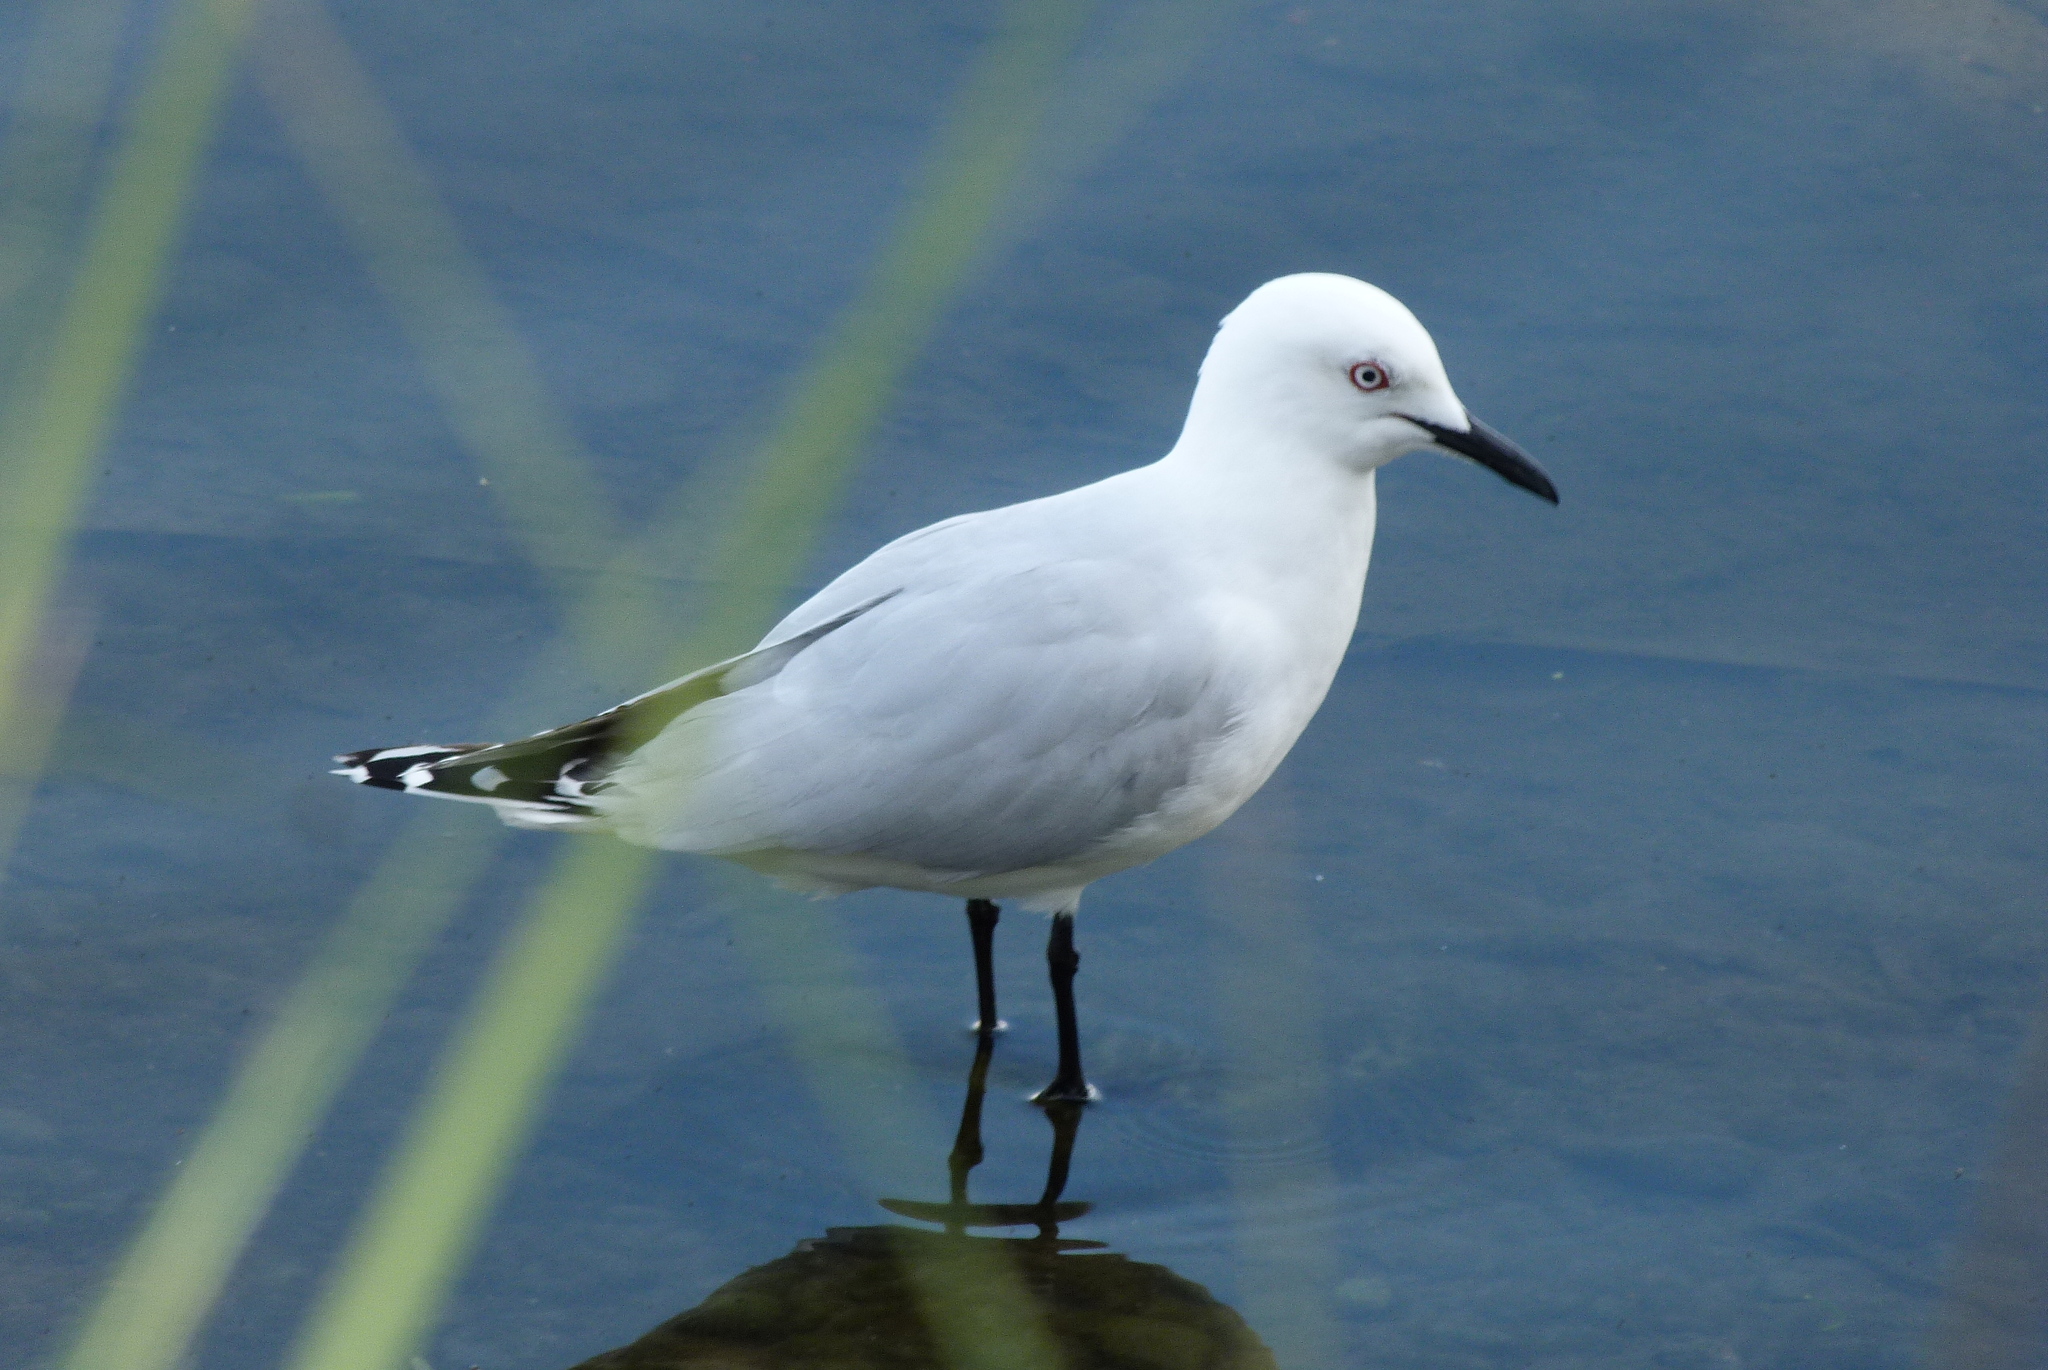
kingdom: Animalia
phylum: Chordata
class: Aves
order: Charadriiformes
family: Laridae
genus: Chroicocephalus
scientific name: Chroicocephalus bulleri
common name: Black-billed gull
